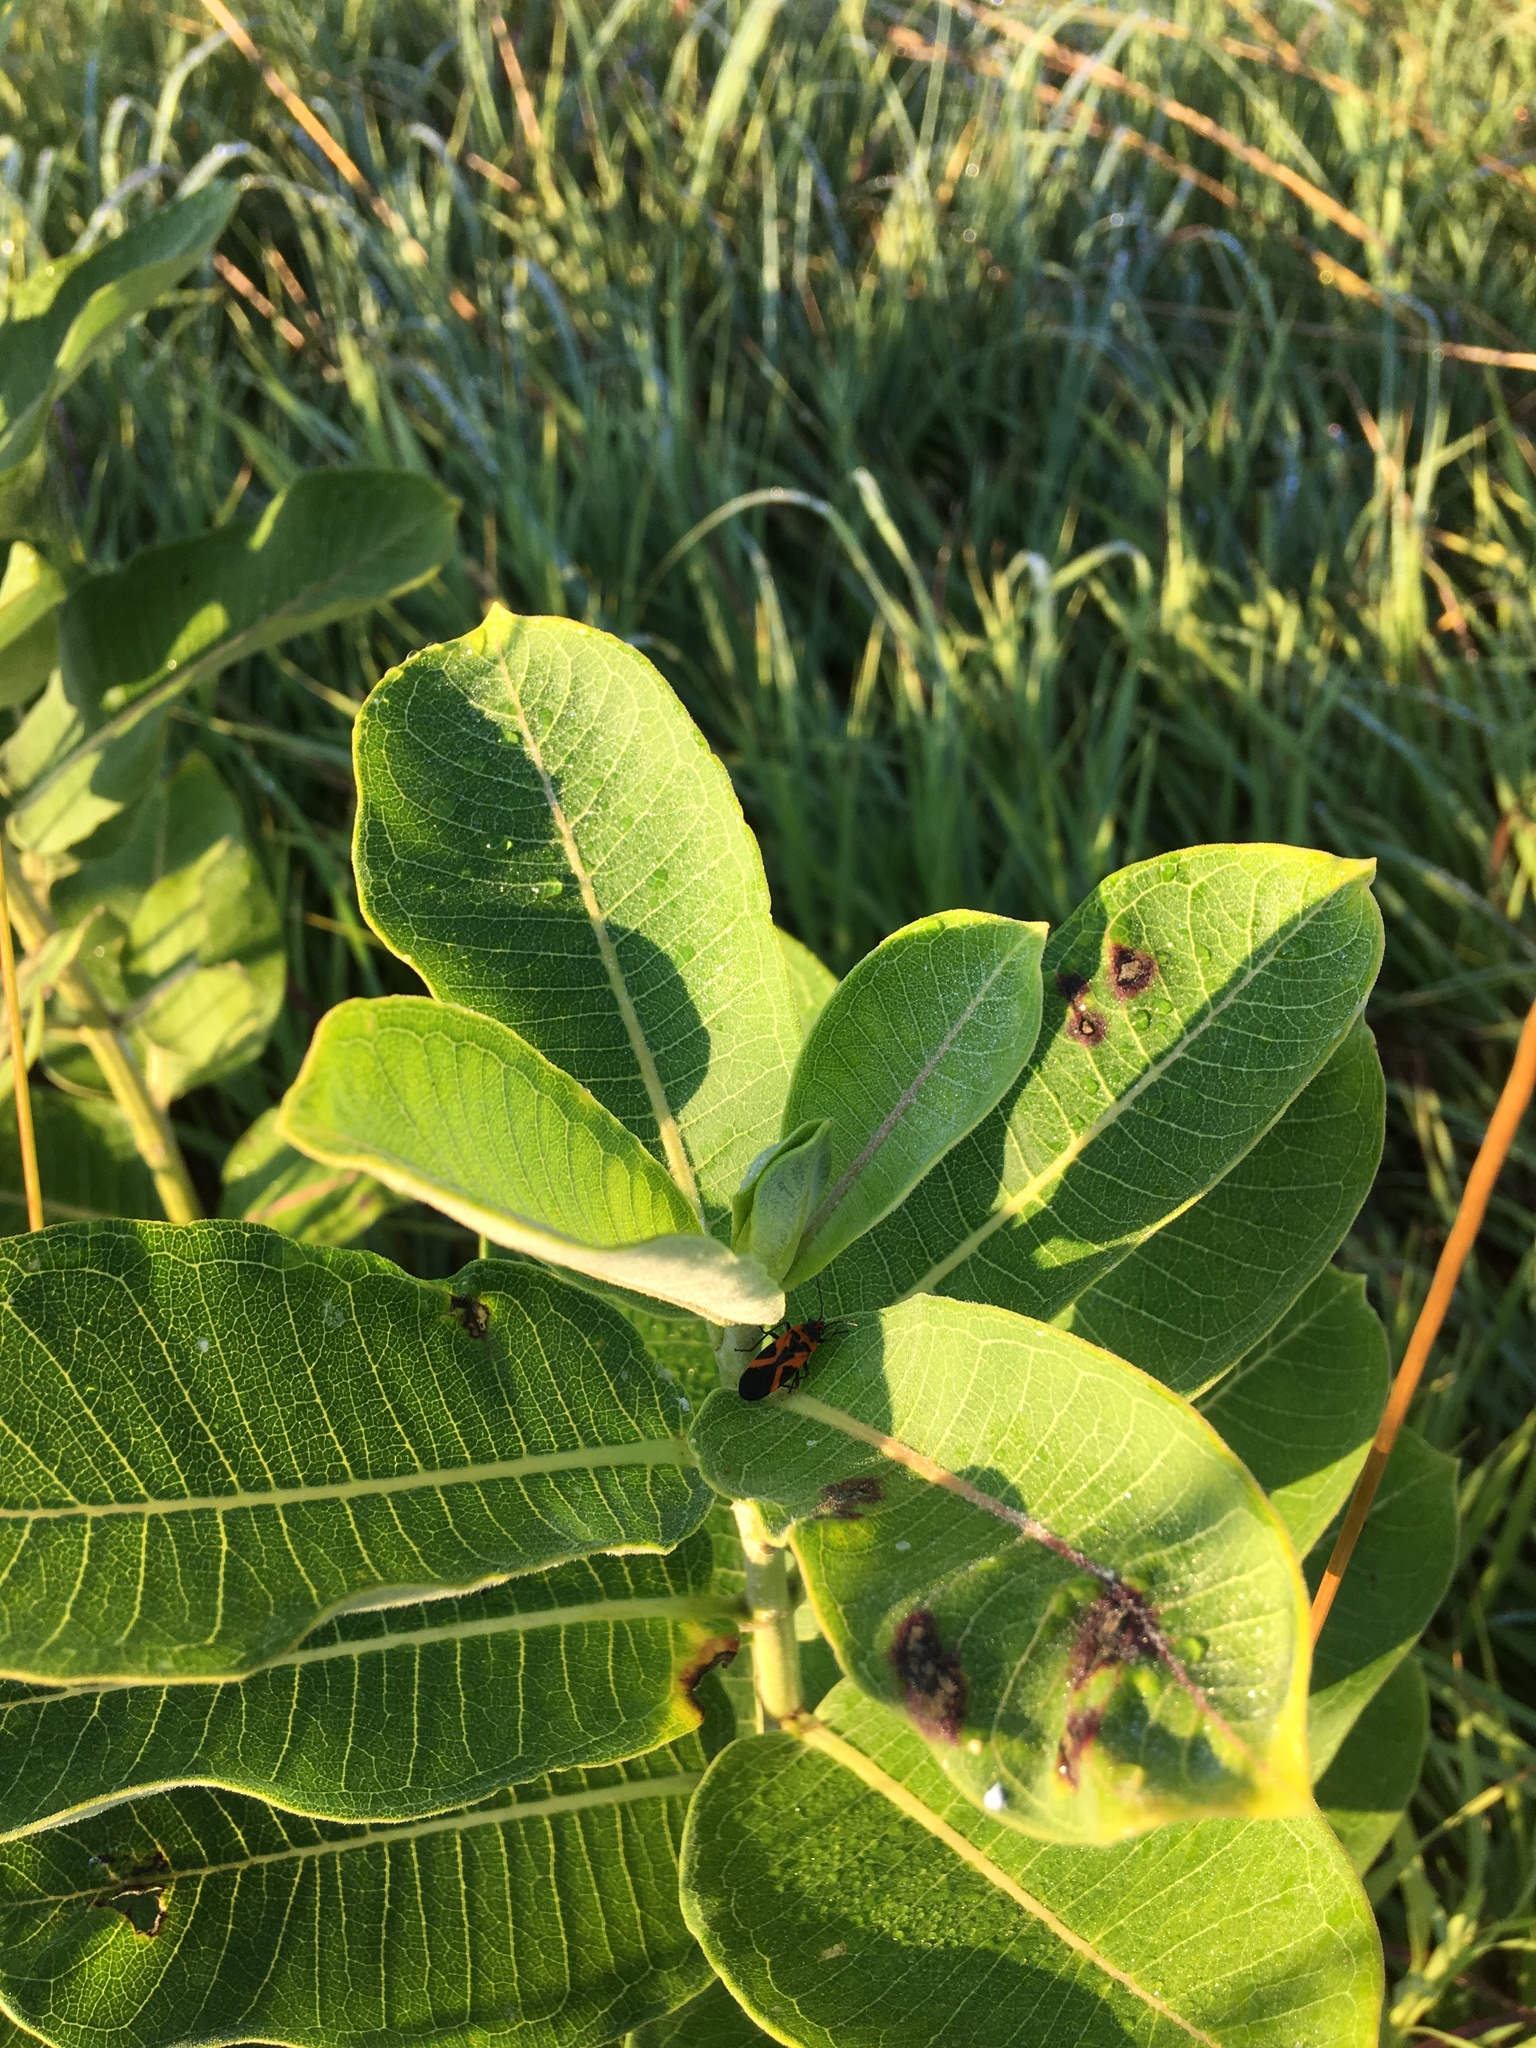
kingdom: Animalia
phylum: Arthropoda
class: Insecta
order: Hemiptera
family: Lygaeidae
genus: Lygaeus
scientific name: Lygaeus turcicus
